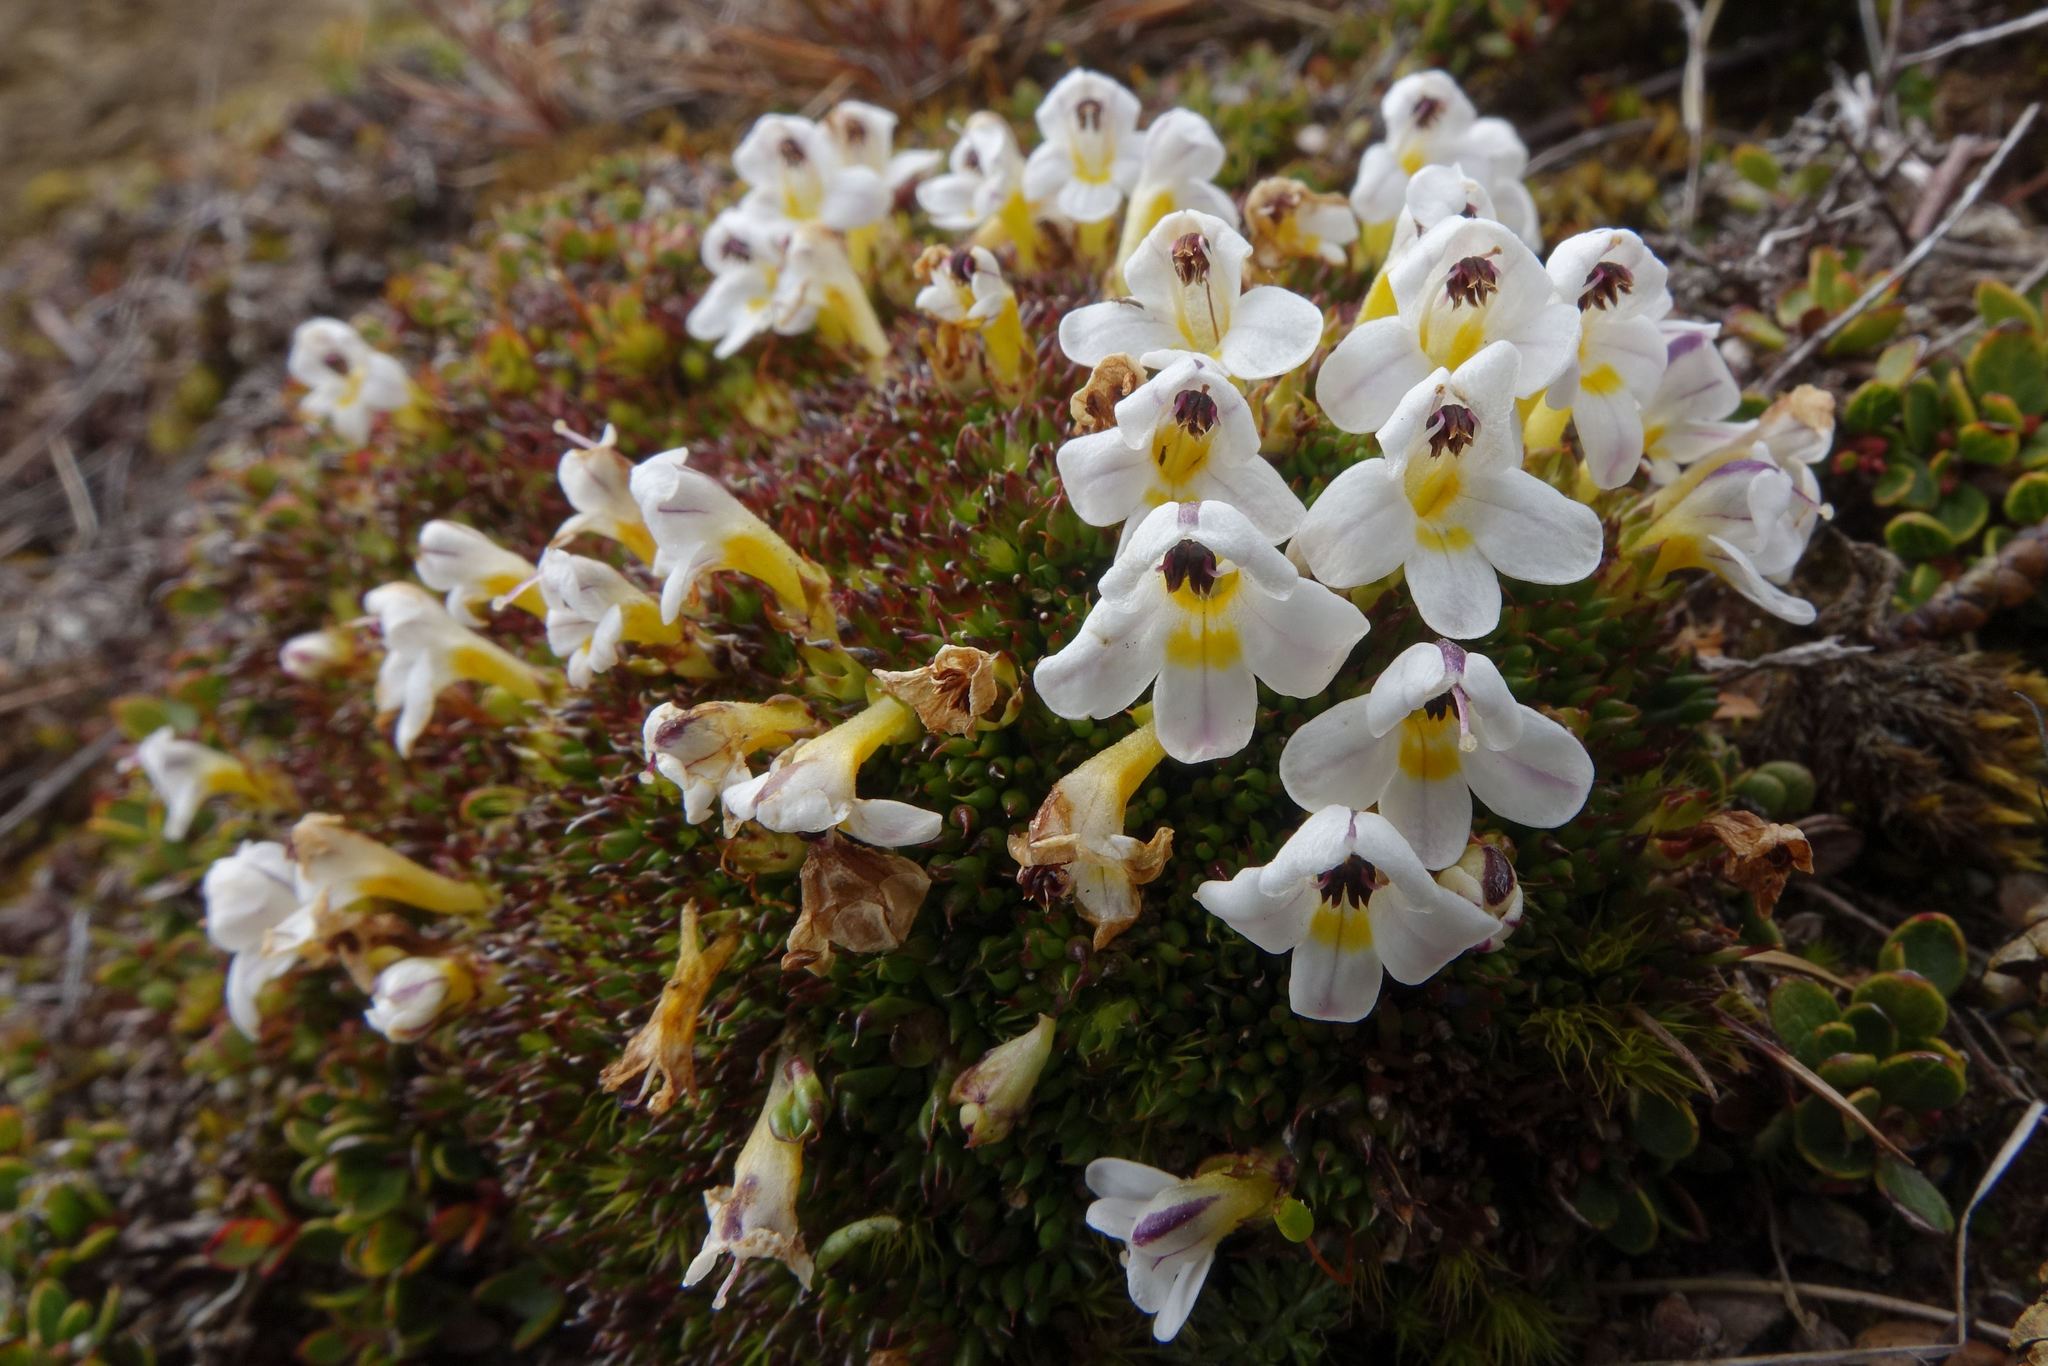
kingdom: Plantae
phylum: Tracheophyta
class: Magnoliopsida
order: Lamiales
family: Orobanchaceae
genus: Euphrasia
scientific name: Euphrasia integrifolia
